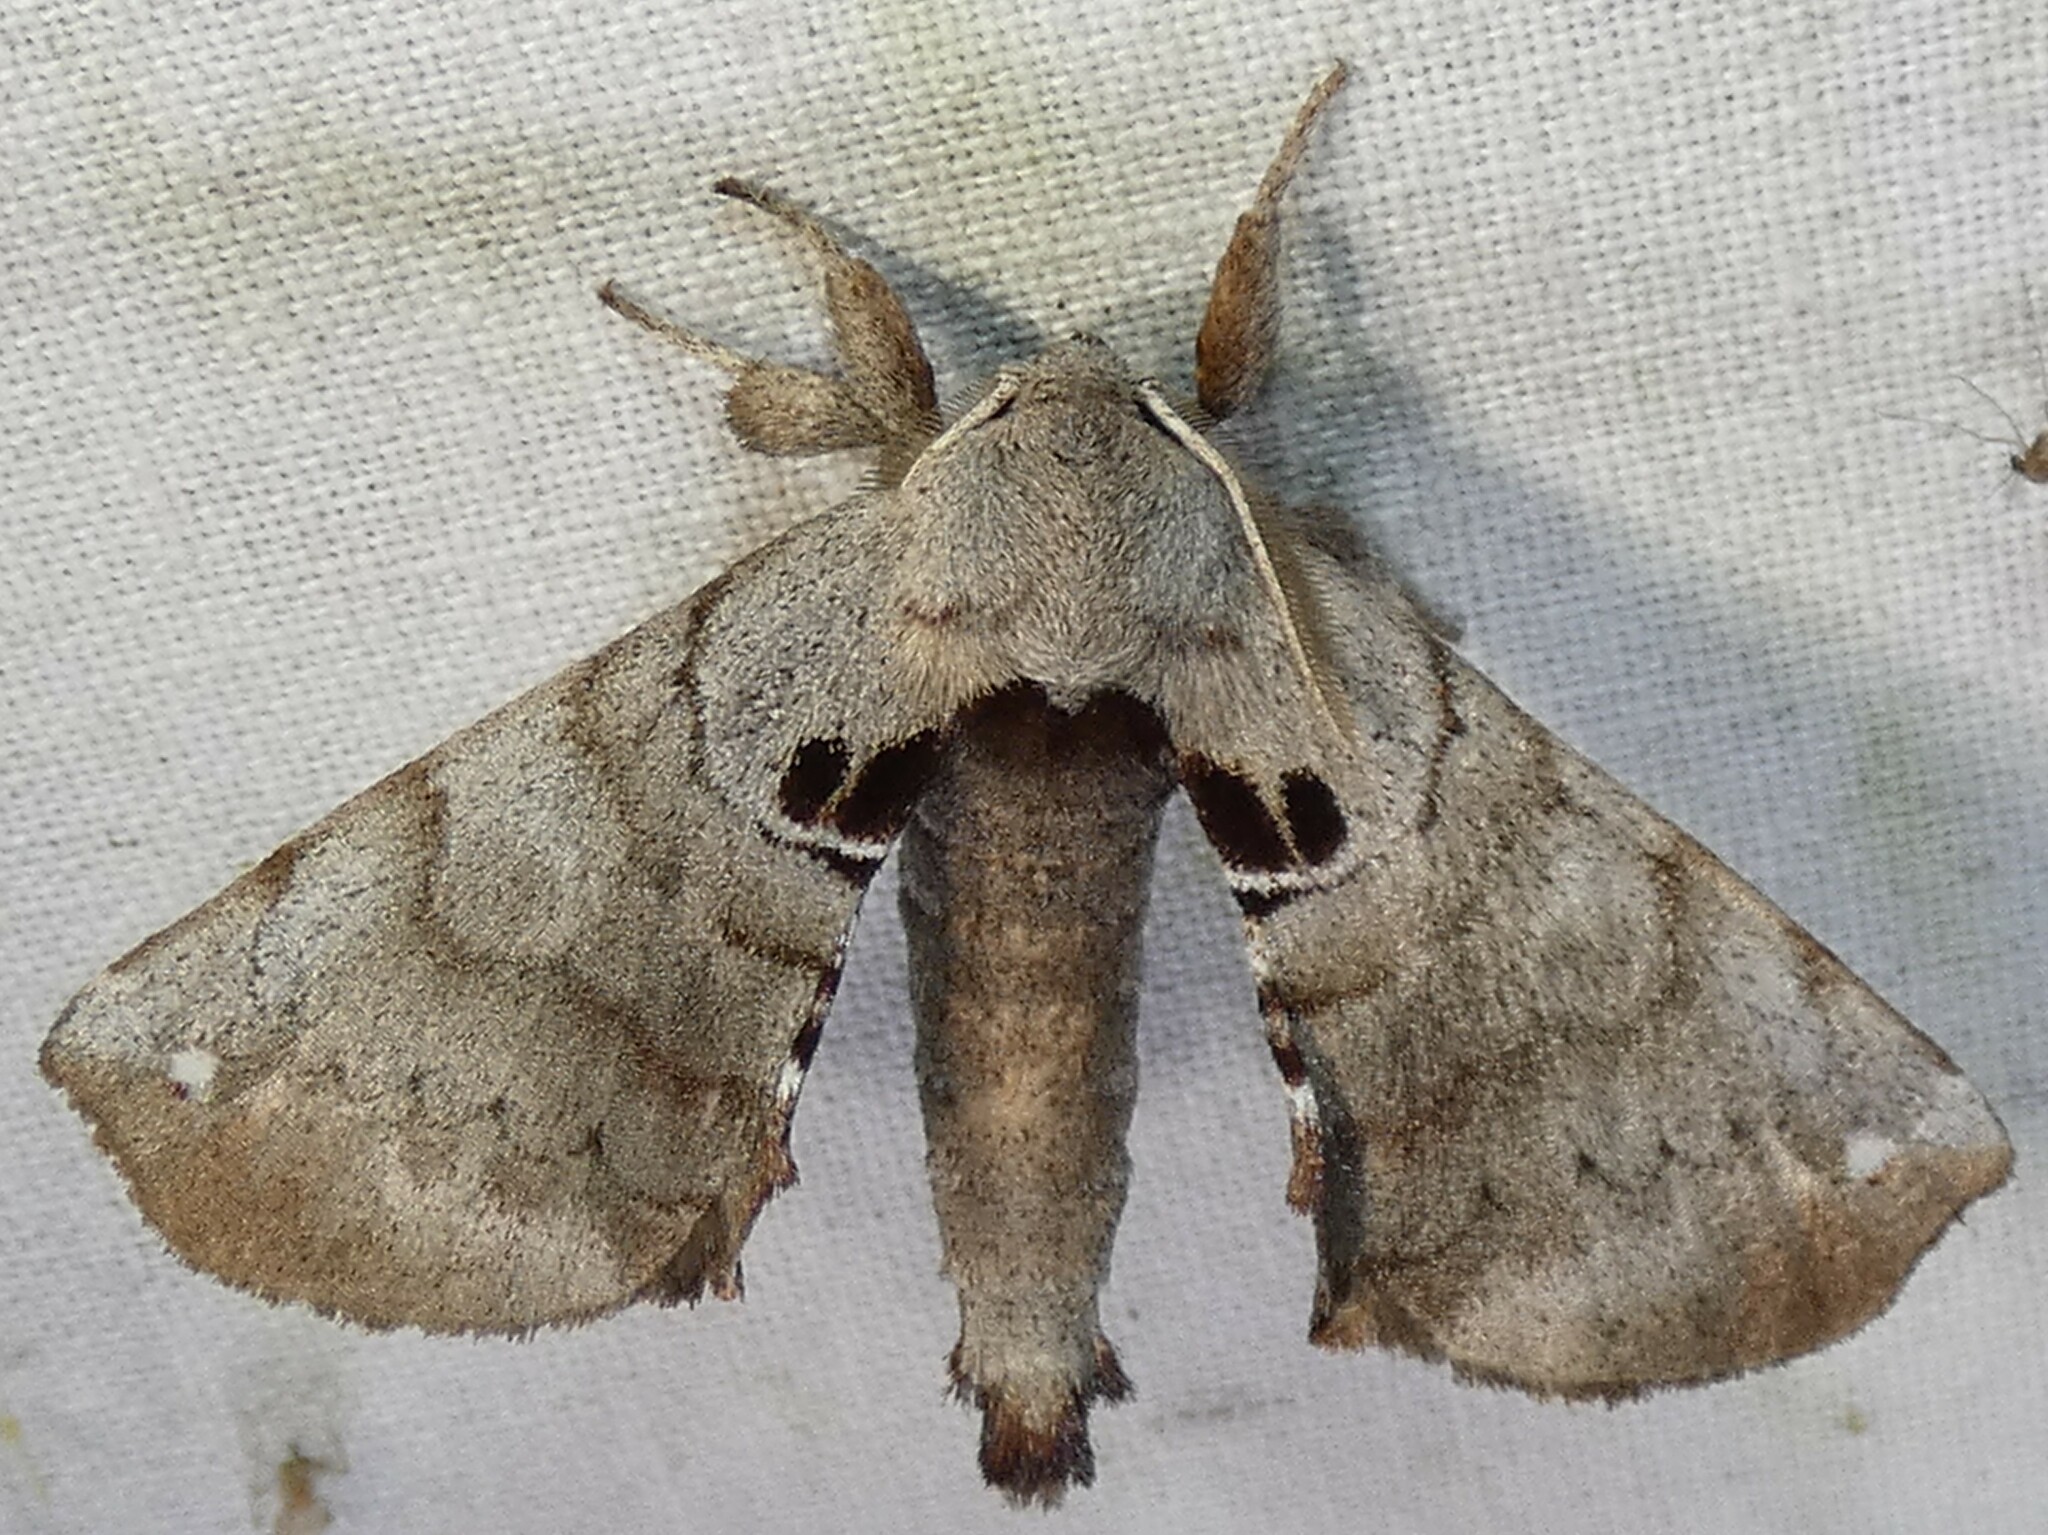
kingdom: Animalia
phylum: Arthropoda
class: Insecta
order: Lepidoptera
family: Apatelodidae
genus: Hygrochroa
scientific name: Hygrochroa Apatelodes torrefacta
